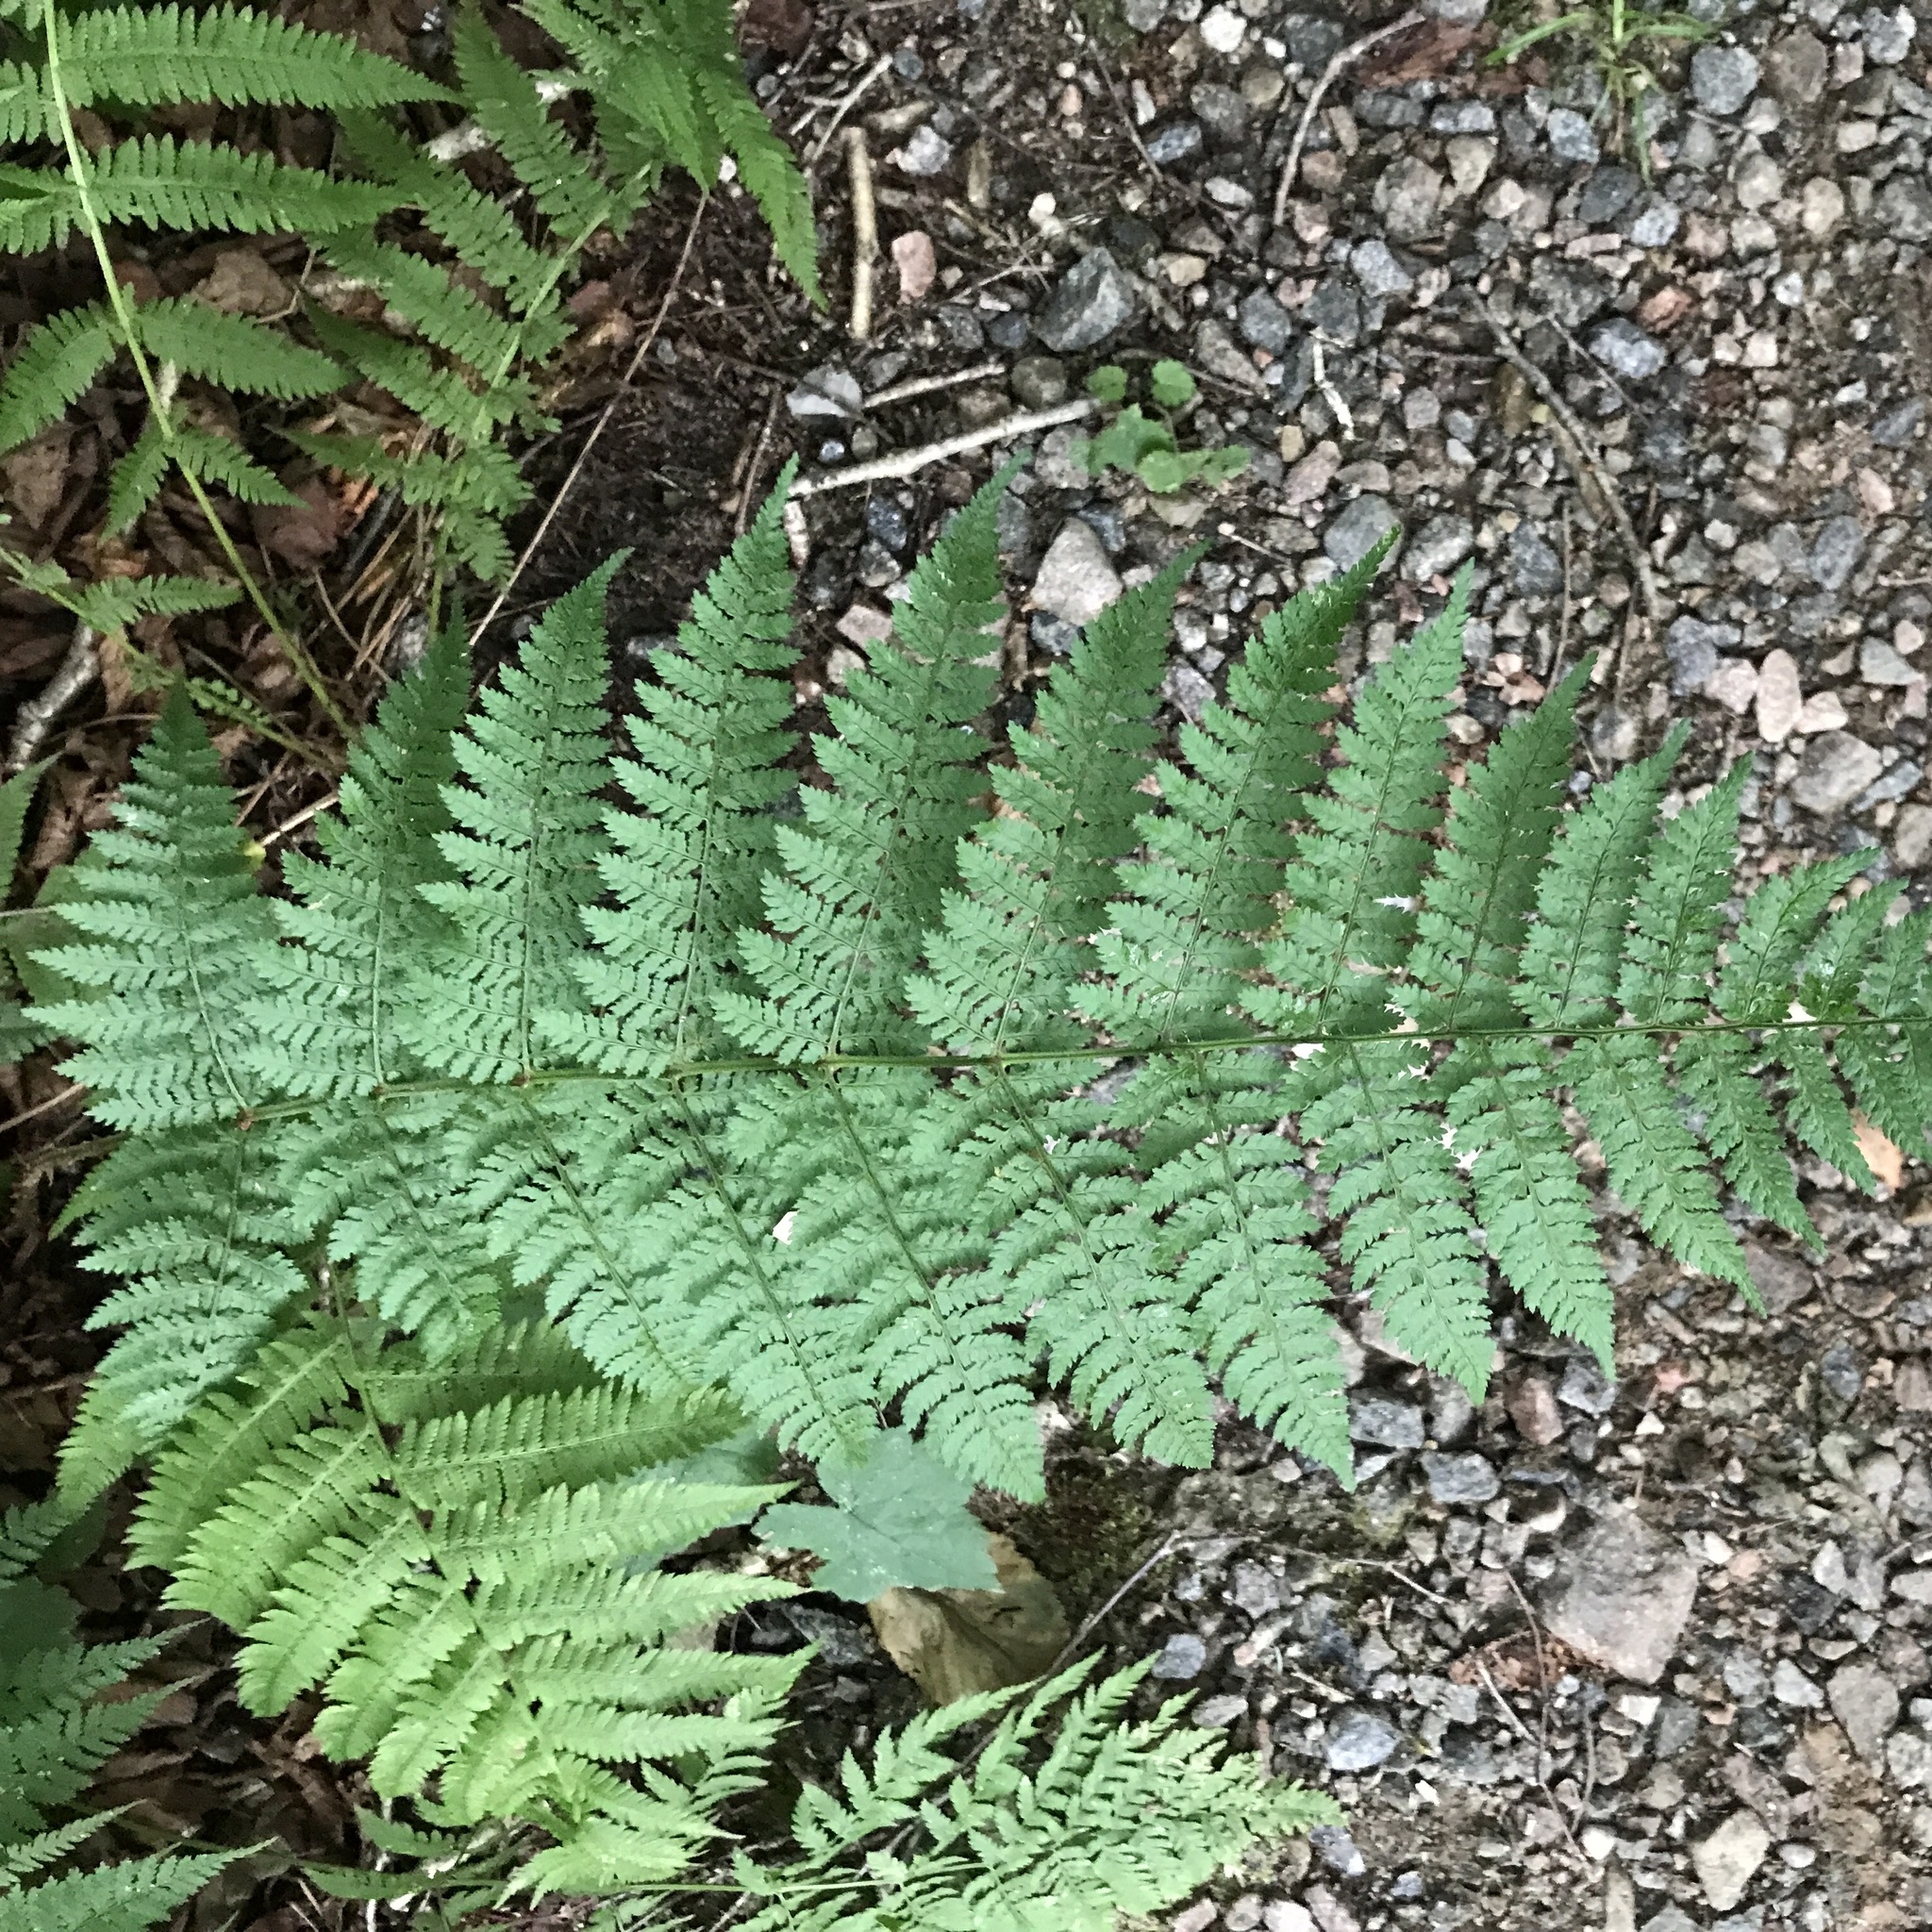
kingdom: Plantae
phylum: Tracheophyta
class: Polypodiopsida
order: Polypodiales
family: Dryopteridaceae
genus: Dryopteris
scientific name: Dryopteris intermedia
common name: Evergreen wood fern
